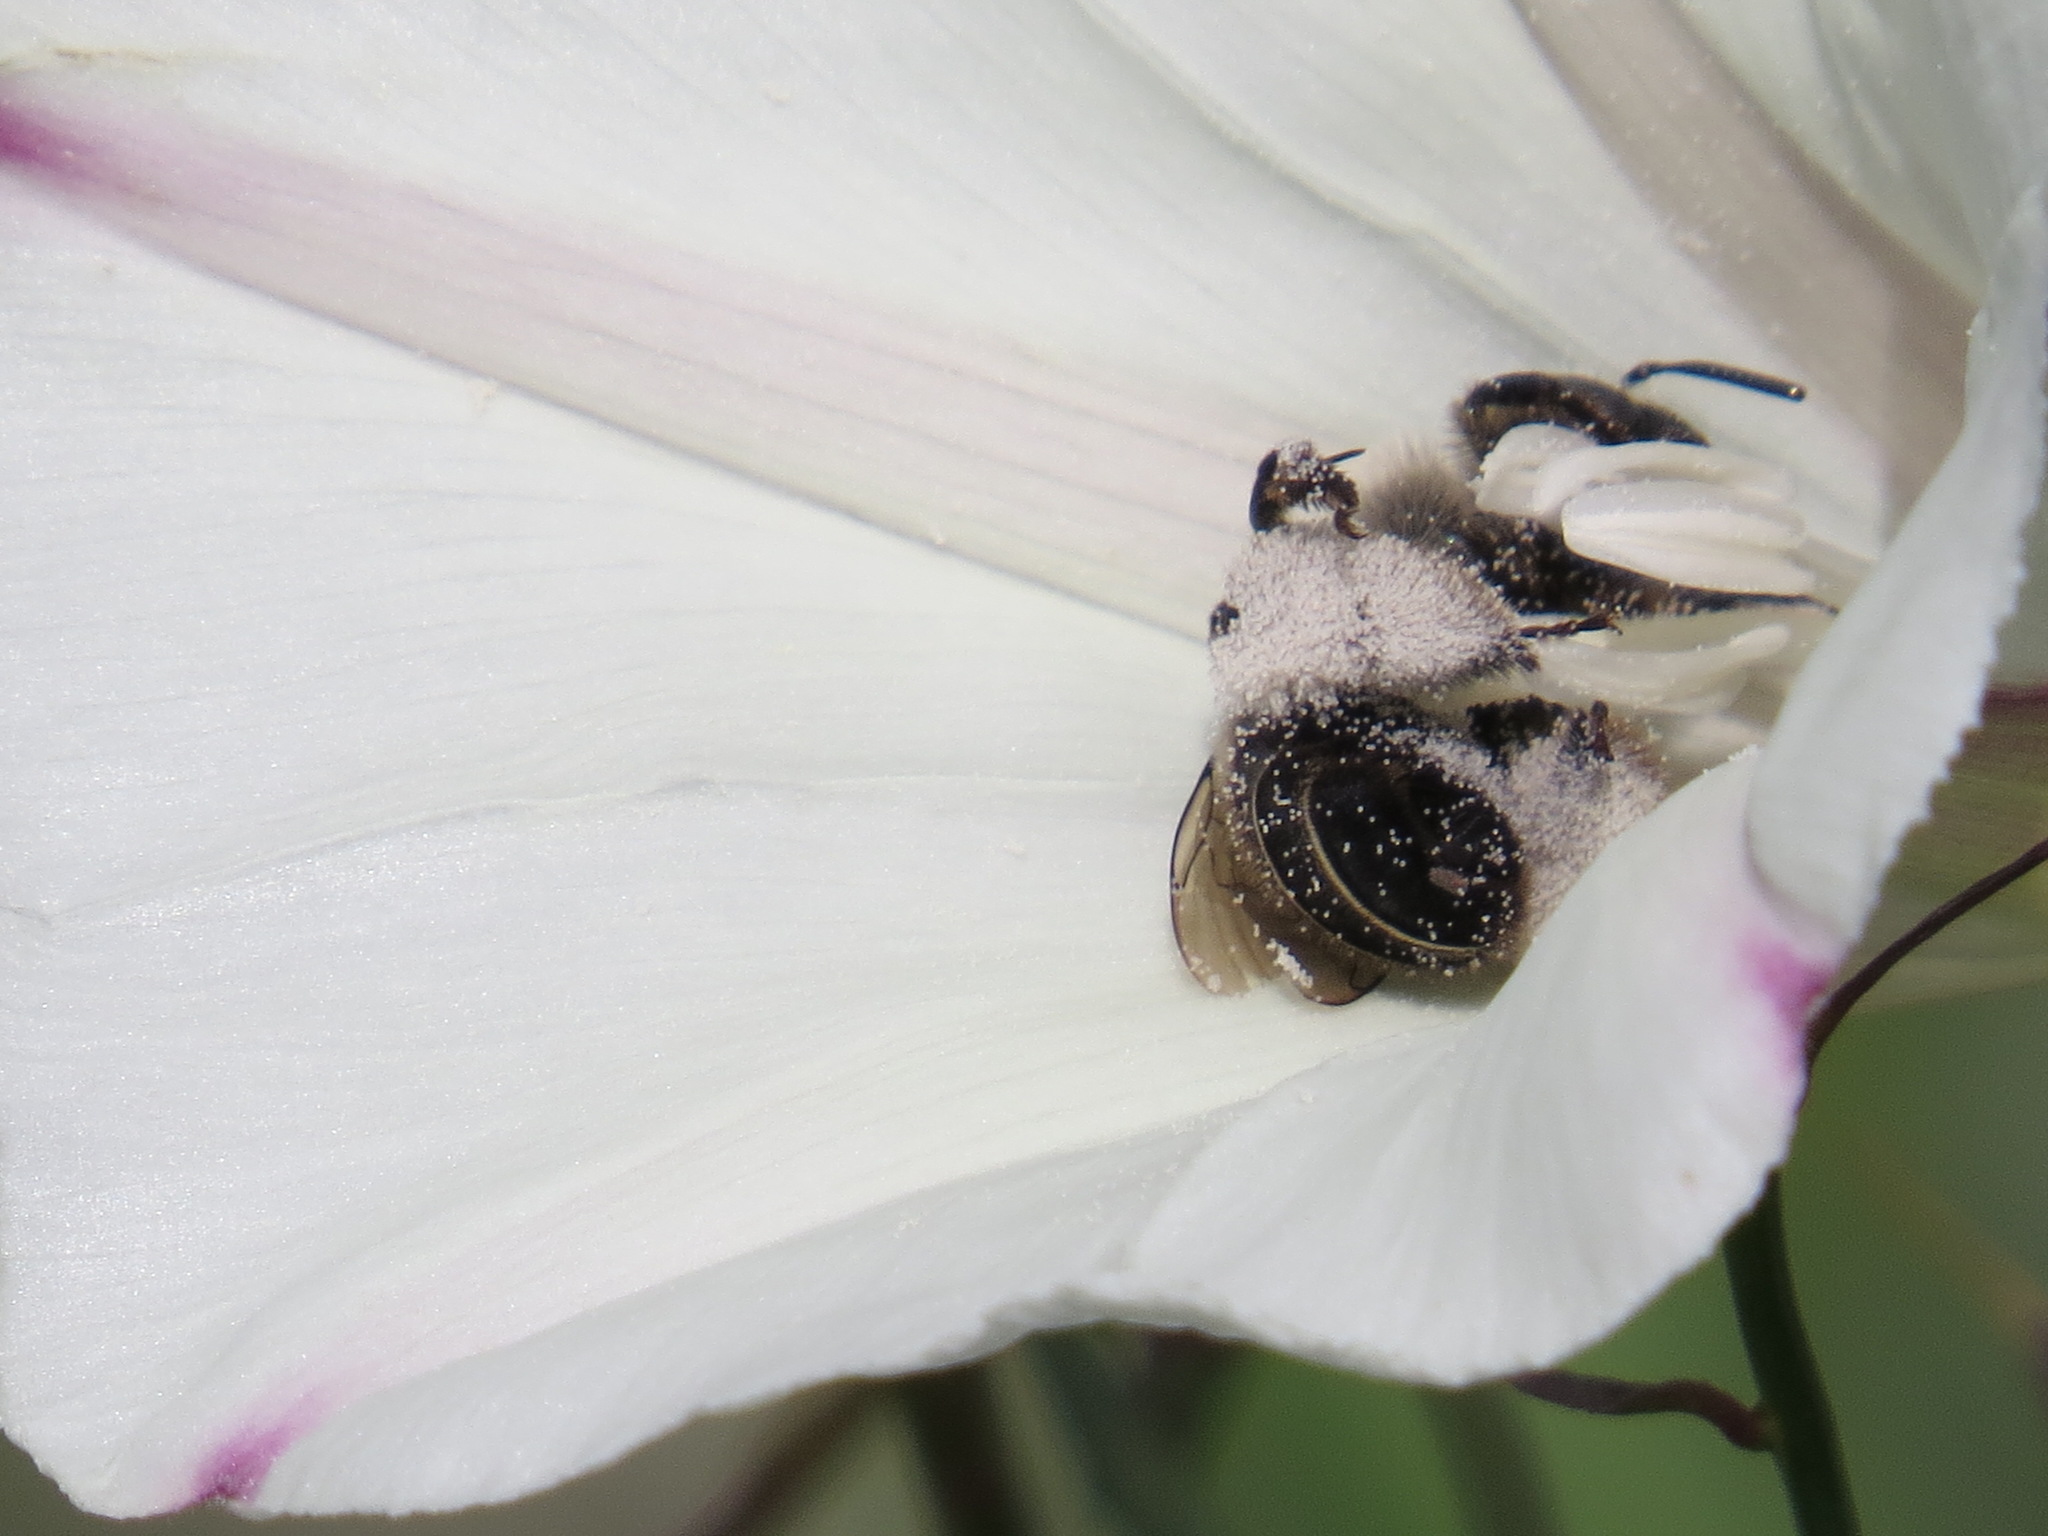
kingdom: Animalia
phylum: Arthropoda
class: Insecta
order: Hymenoptera
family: Apidae
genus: Diadasia
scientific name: Diadasia bituberculata
